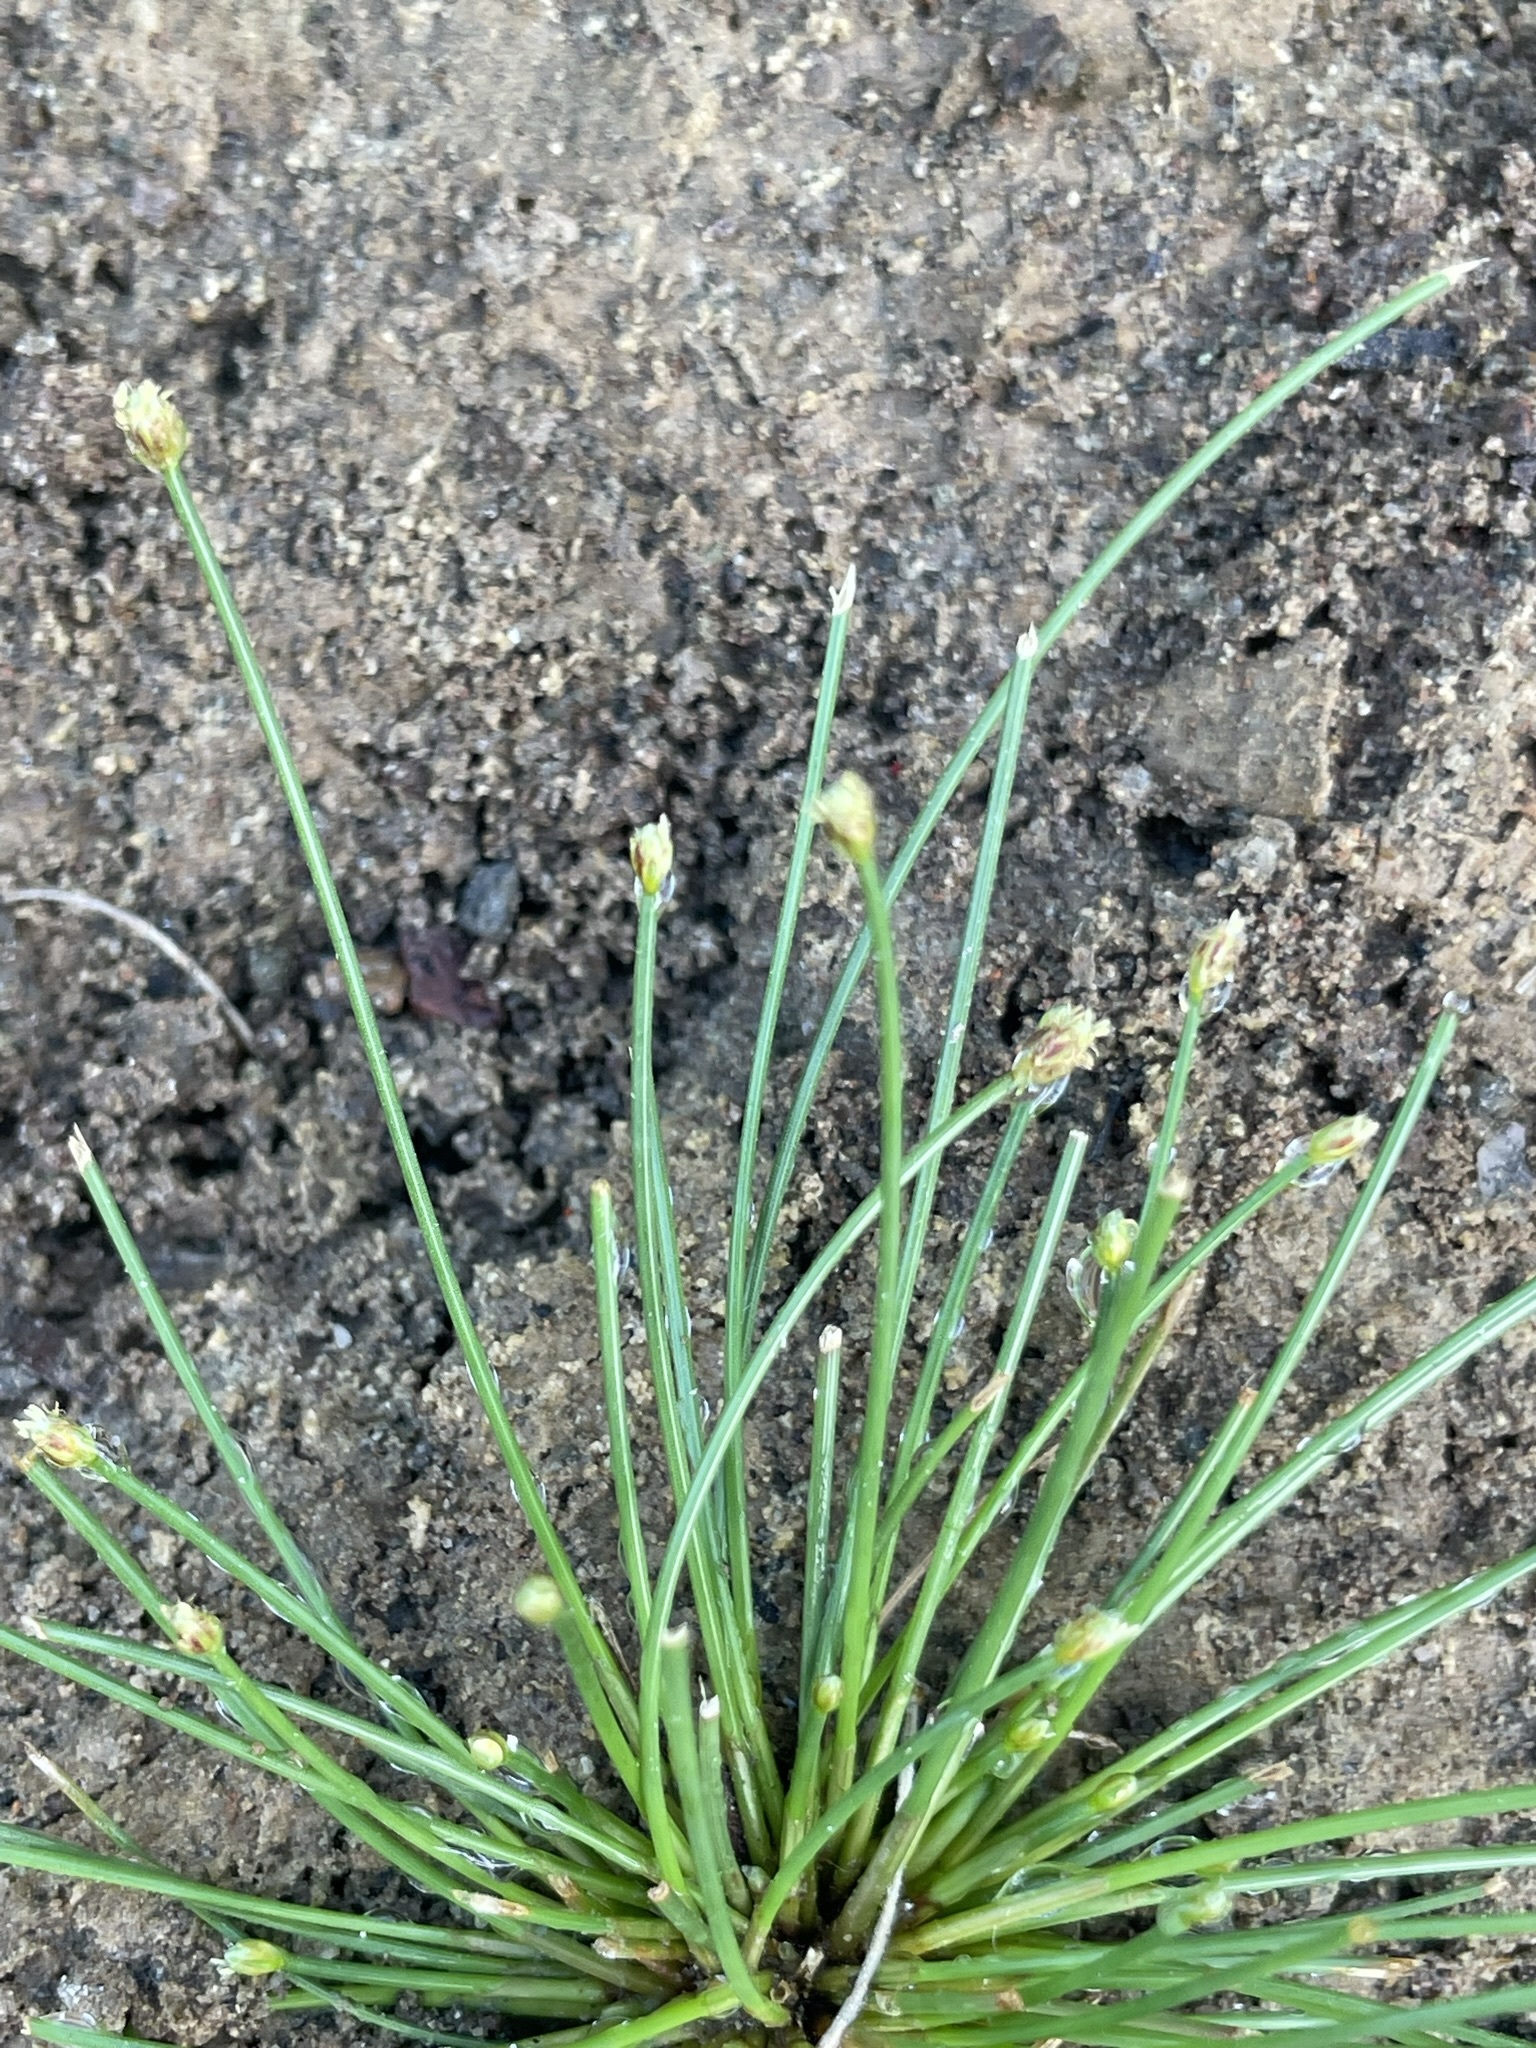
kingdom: Plantae
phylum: Tracheophyta
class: Liliopsida
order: Poales
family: Cyperaceae
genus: Eleocharis
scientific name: Eleocharis geniculata
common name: Canada spikesedge
